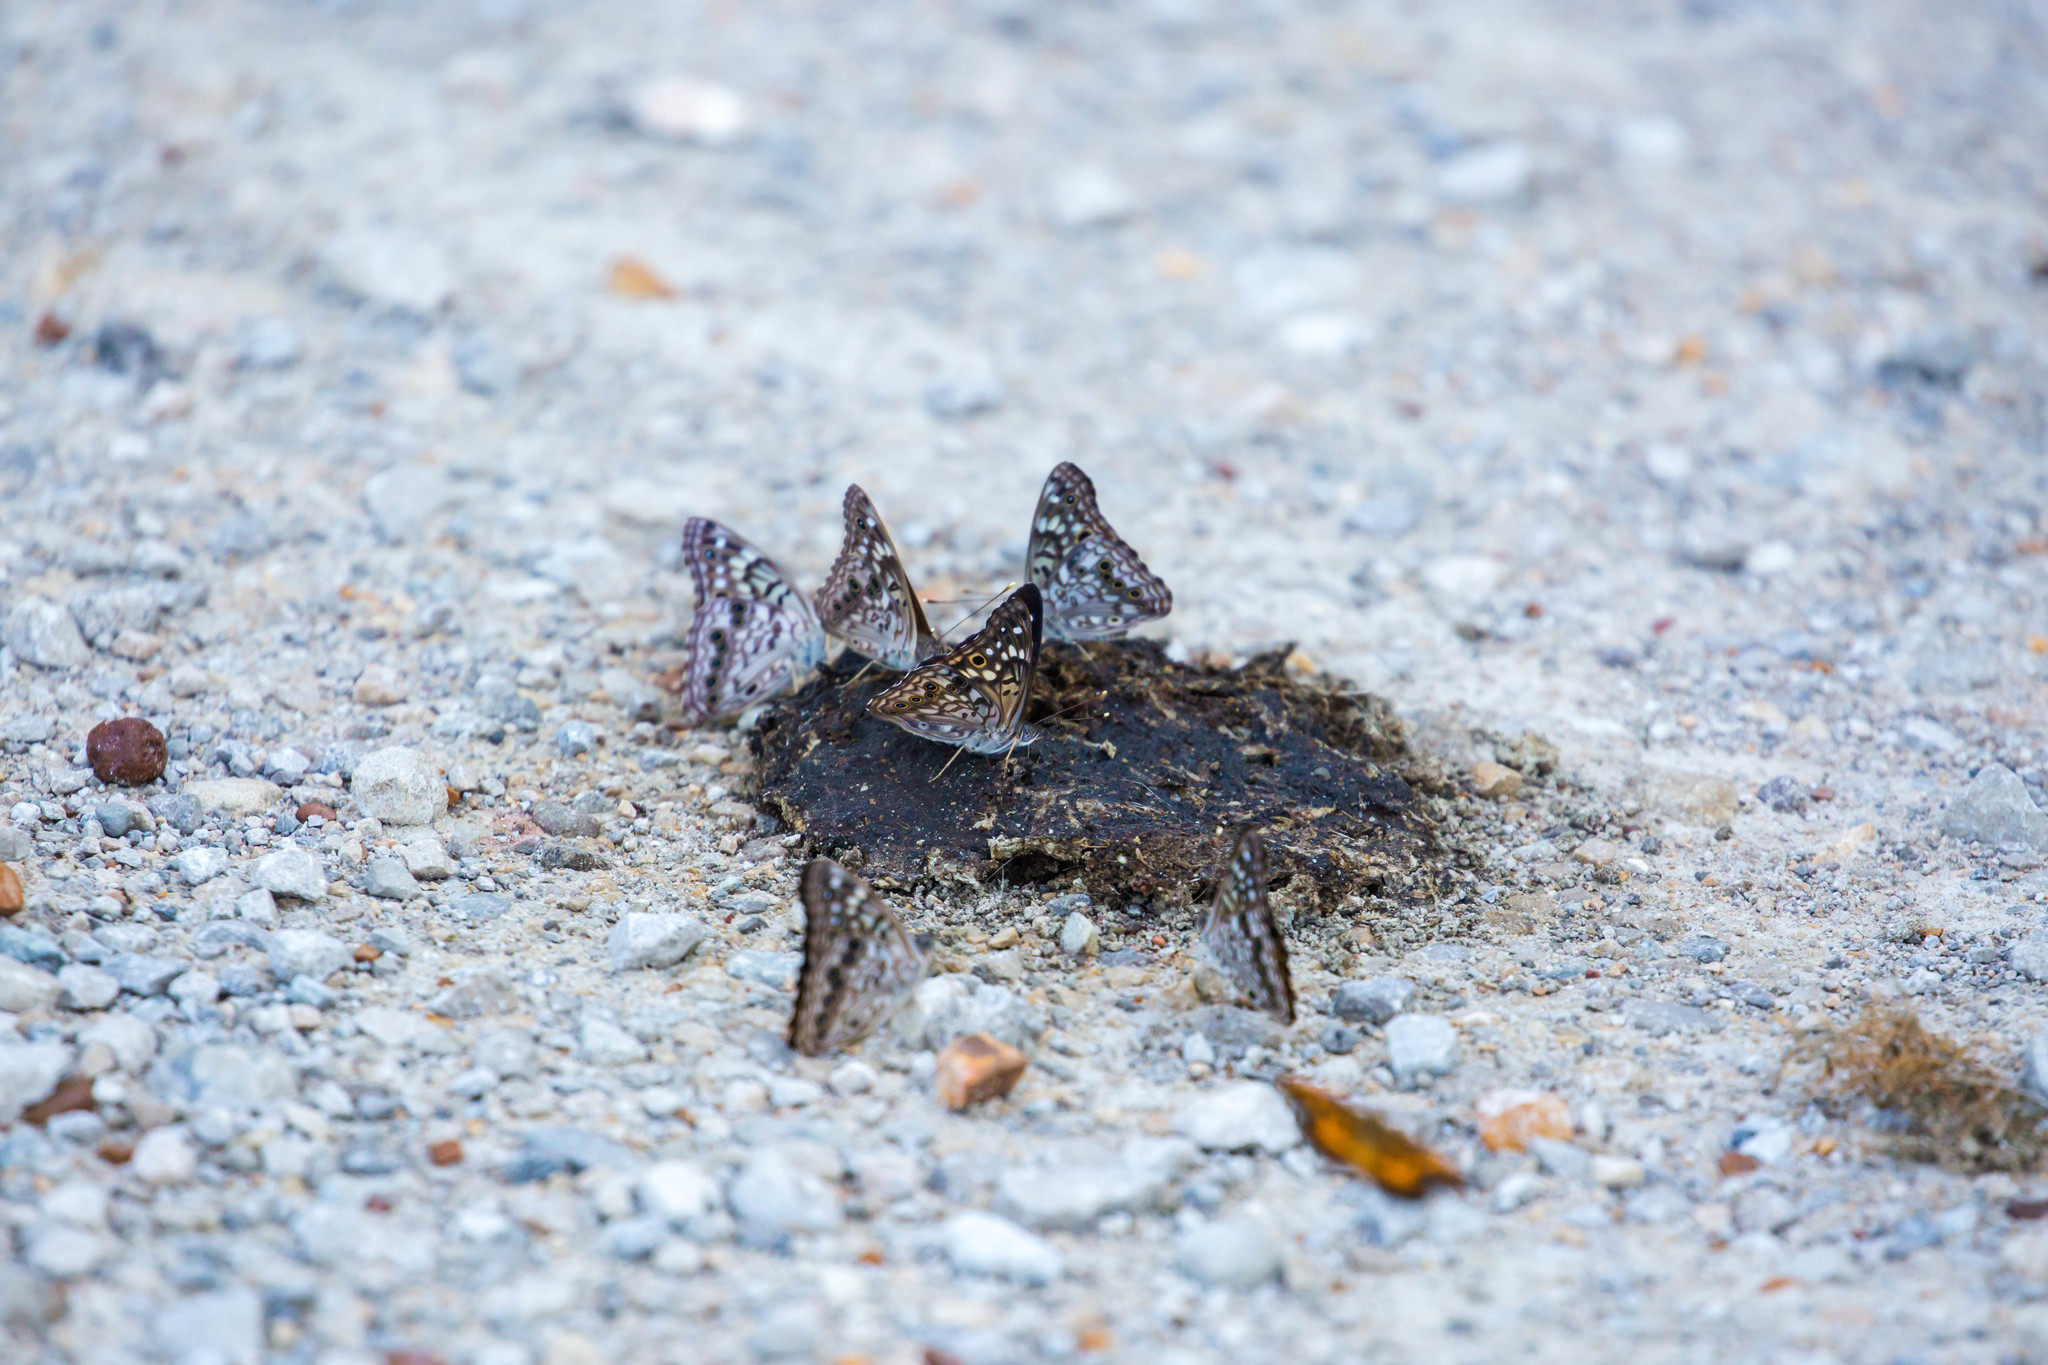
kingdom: Animalia
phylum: Arthropoda
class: Insecta
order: Lepidoptera
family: Nymphalidae
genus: Asterocampa
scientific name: Asterocampa celtis
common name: Hackberry emperor
